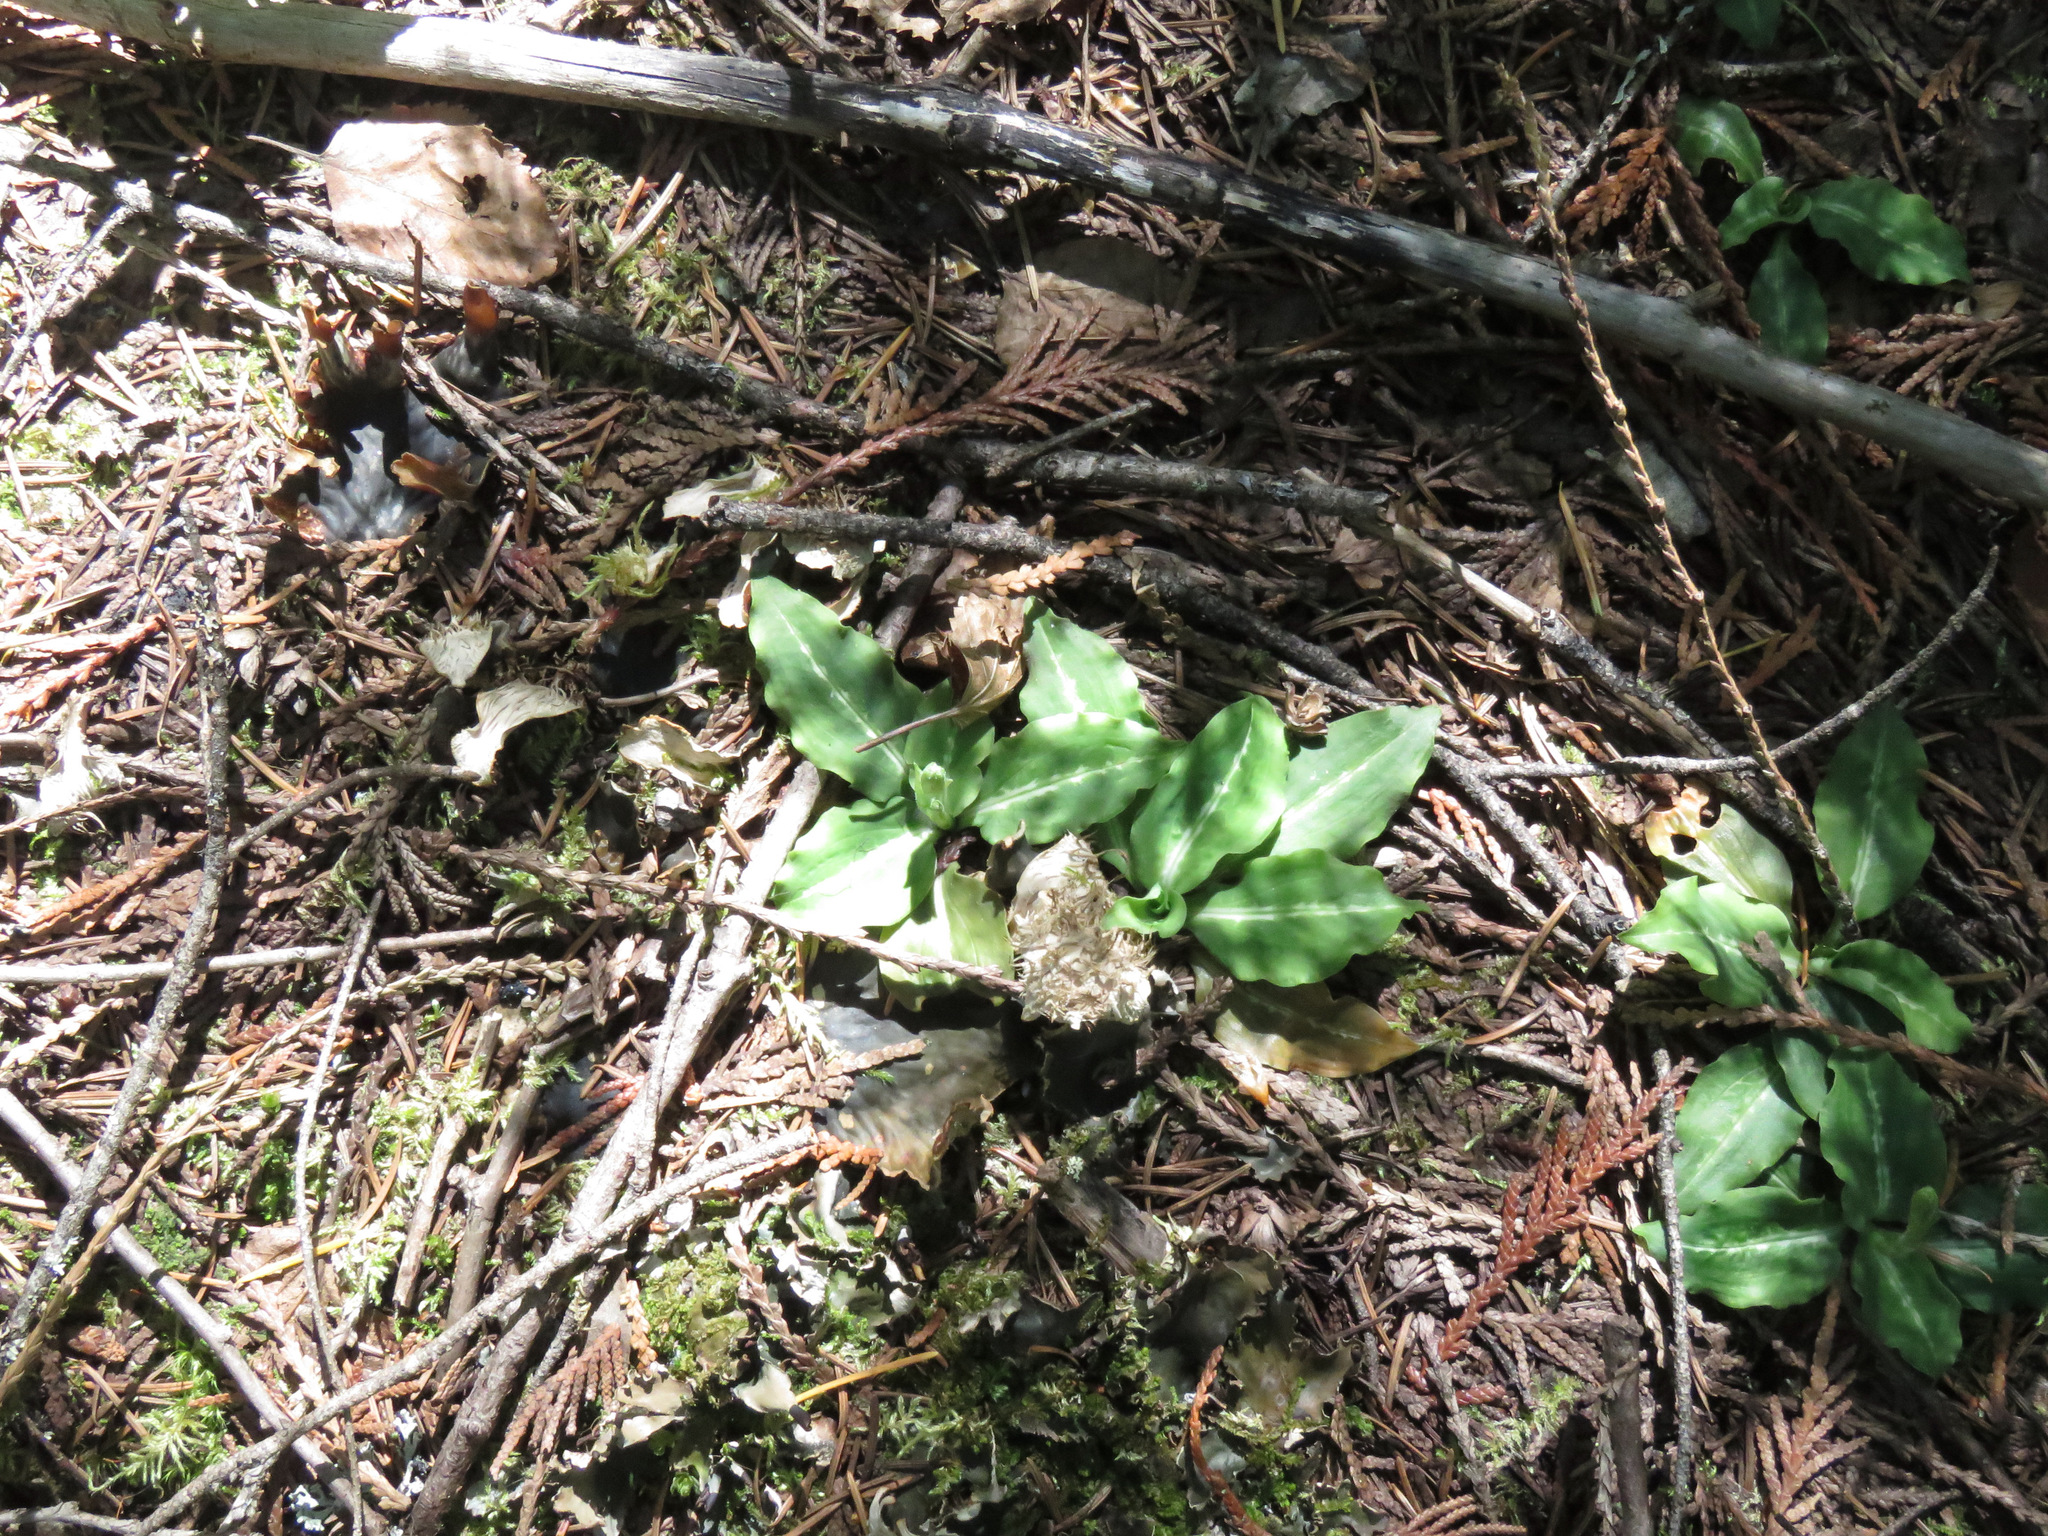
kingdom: Plantae
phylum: Tracheophyta
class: Liliopsida
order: Asparagales
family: Orchidaceae
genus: Goodyera
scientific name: Goodyera oblongifolia
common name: Giant rattlesnake-plantain
